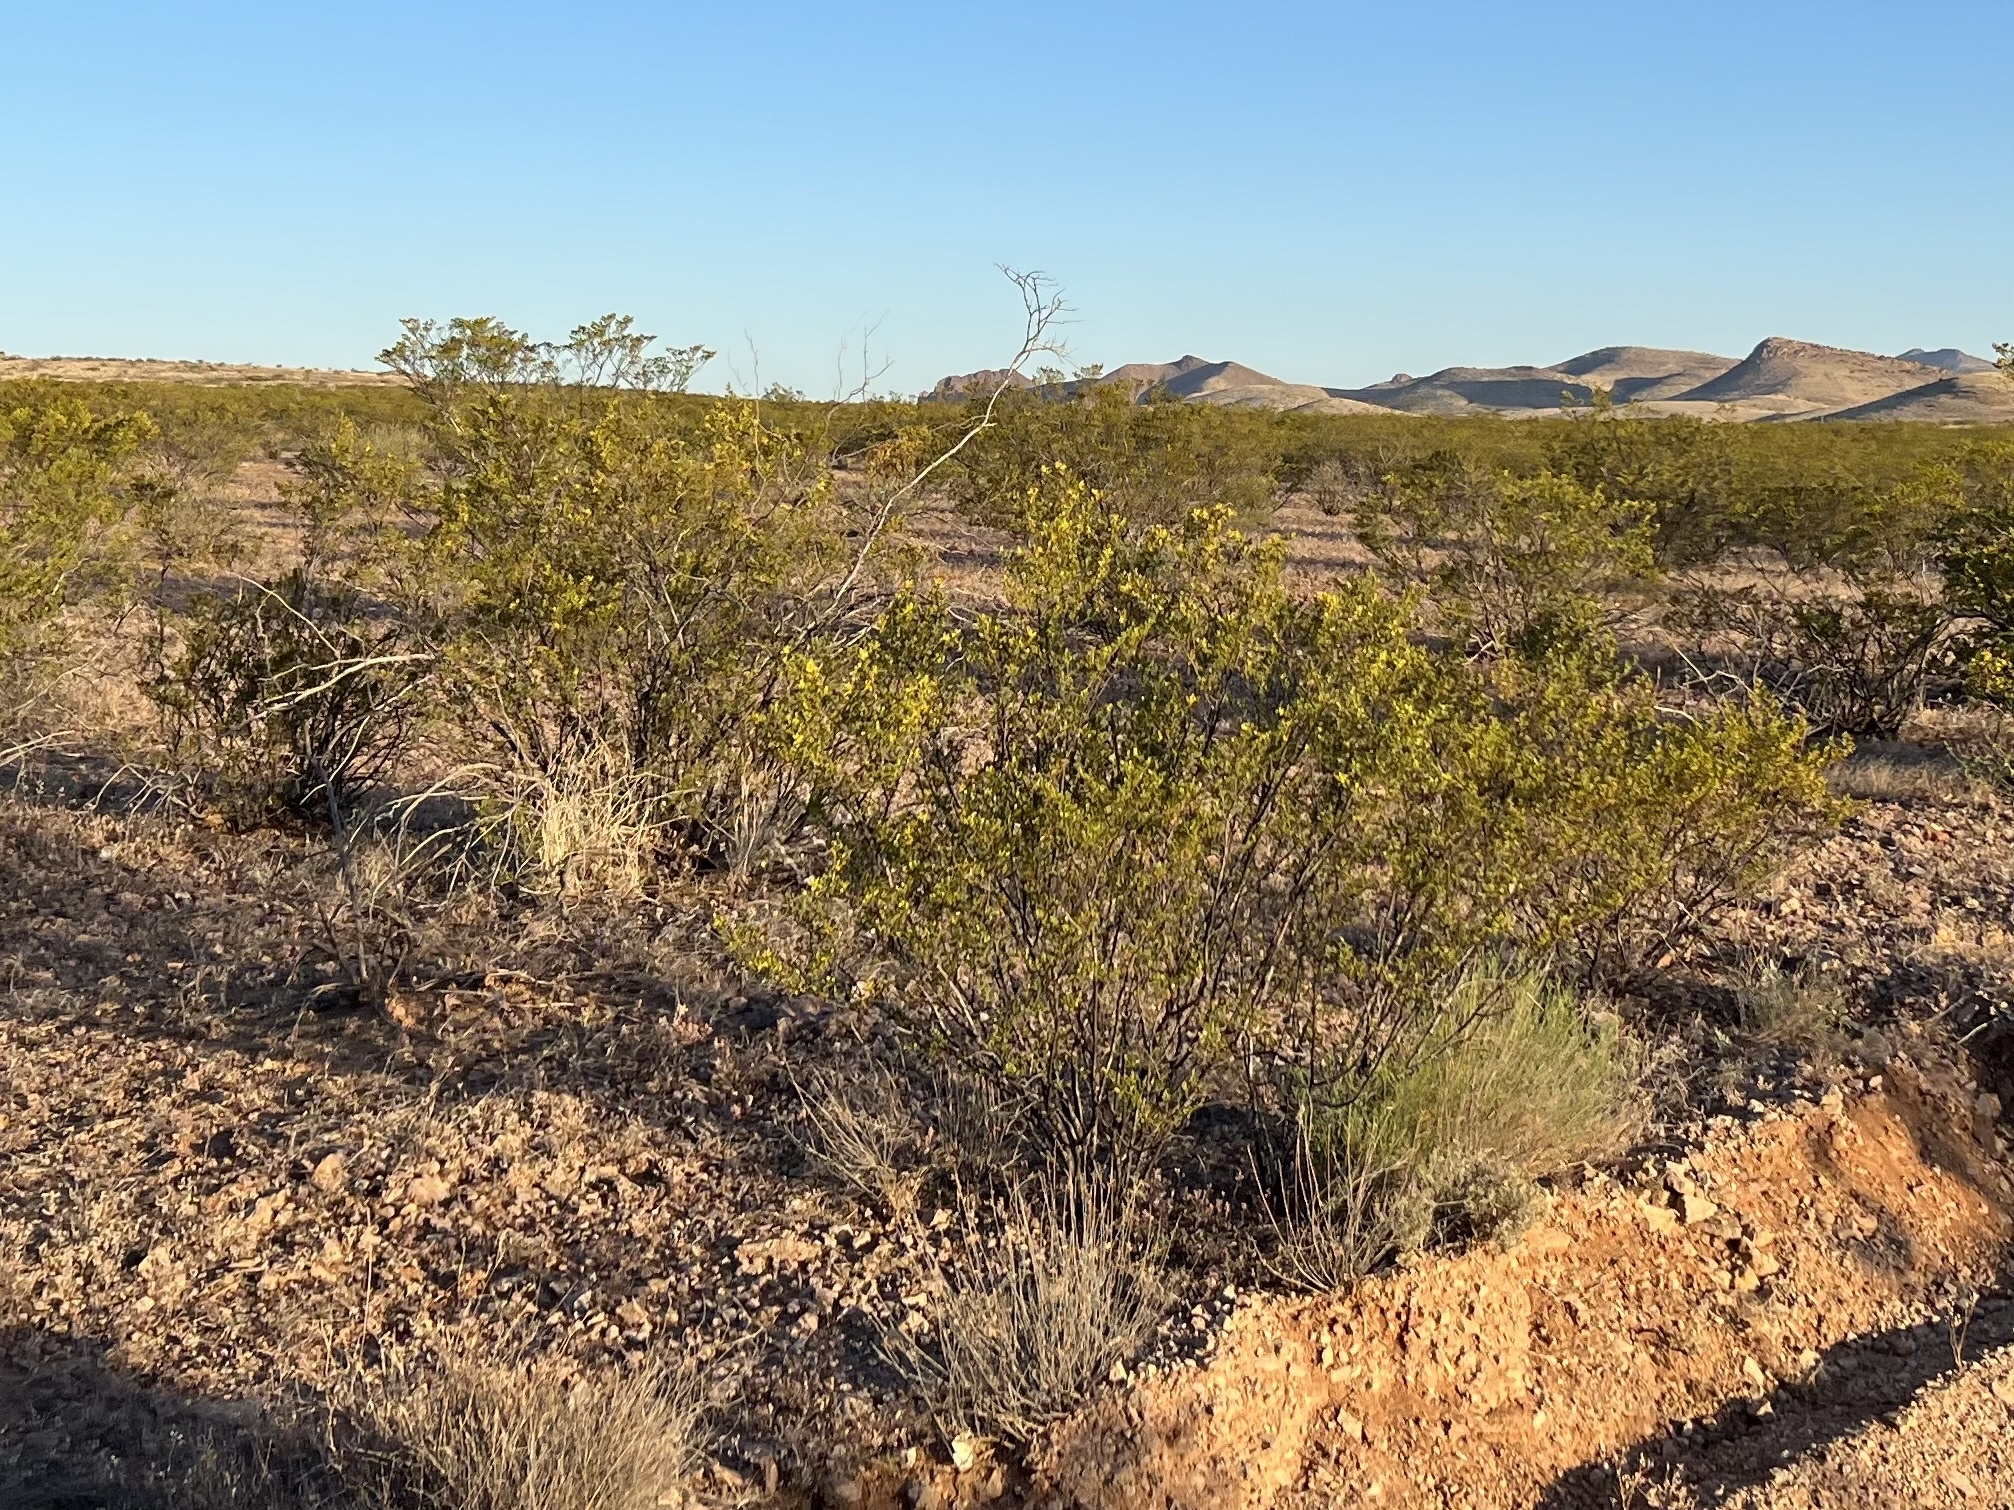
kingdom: Plantae
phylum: Tracheophyta
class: Magnoliopsida
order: Zygophyllales
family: Zygophyllaceae
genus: Larrea
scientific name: Larrea tridentata
